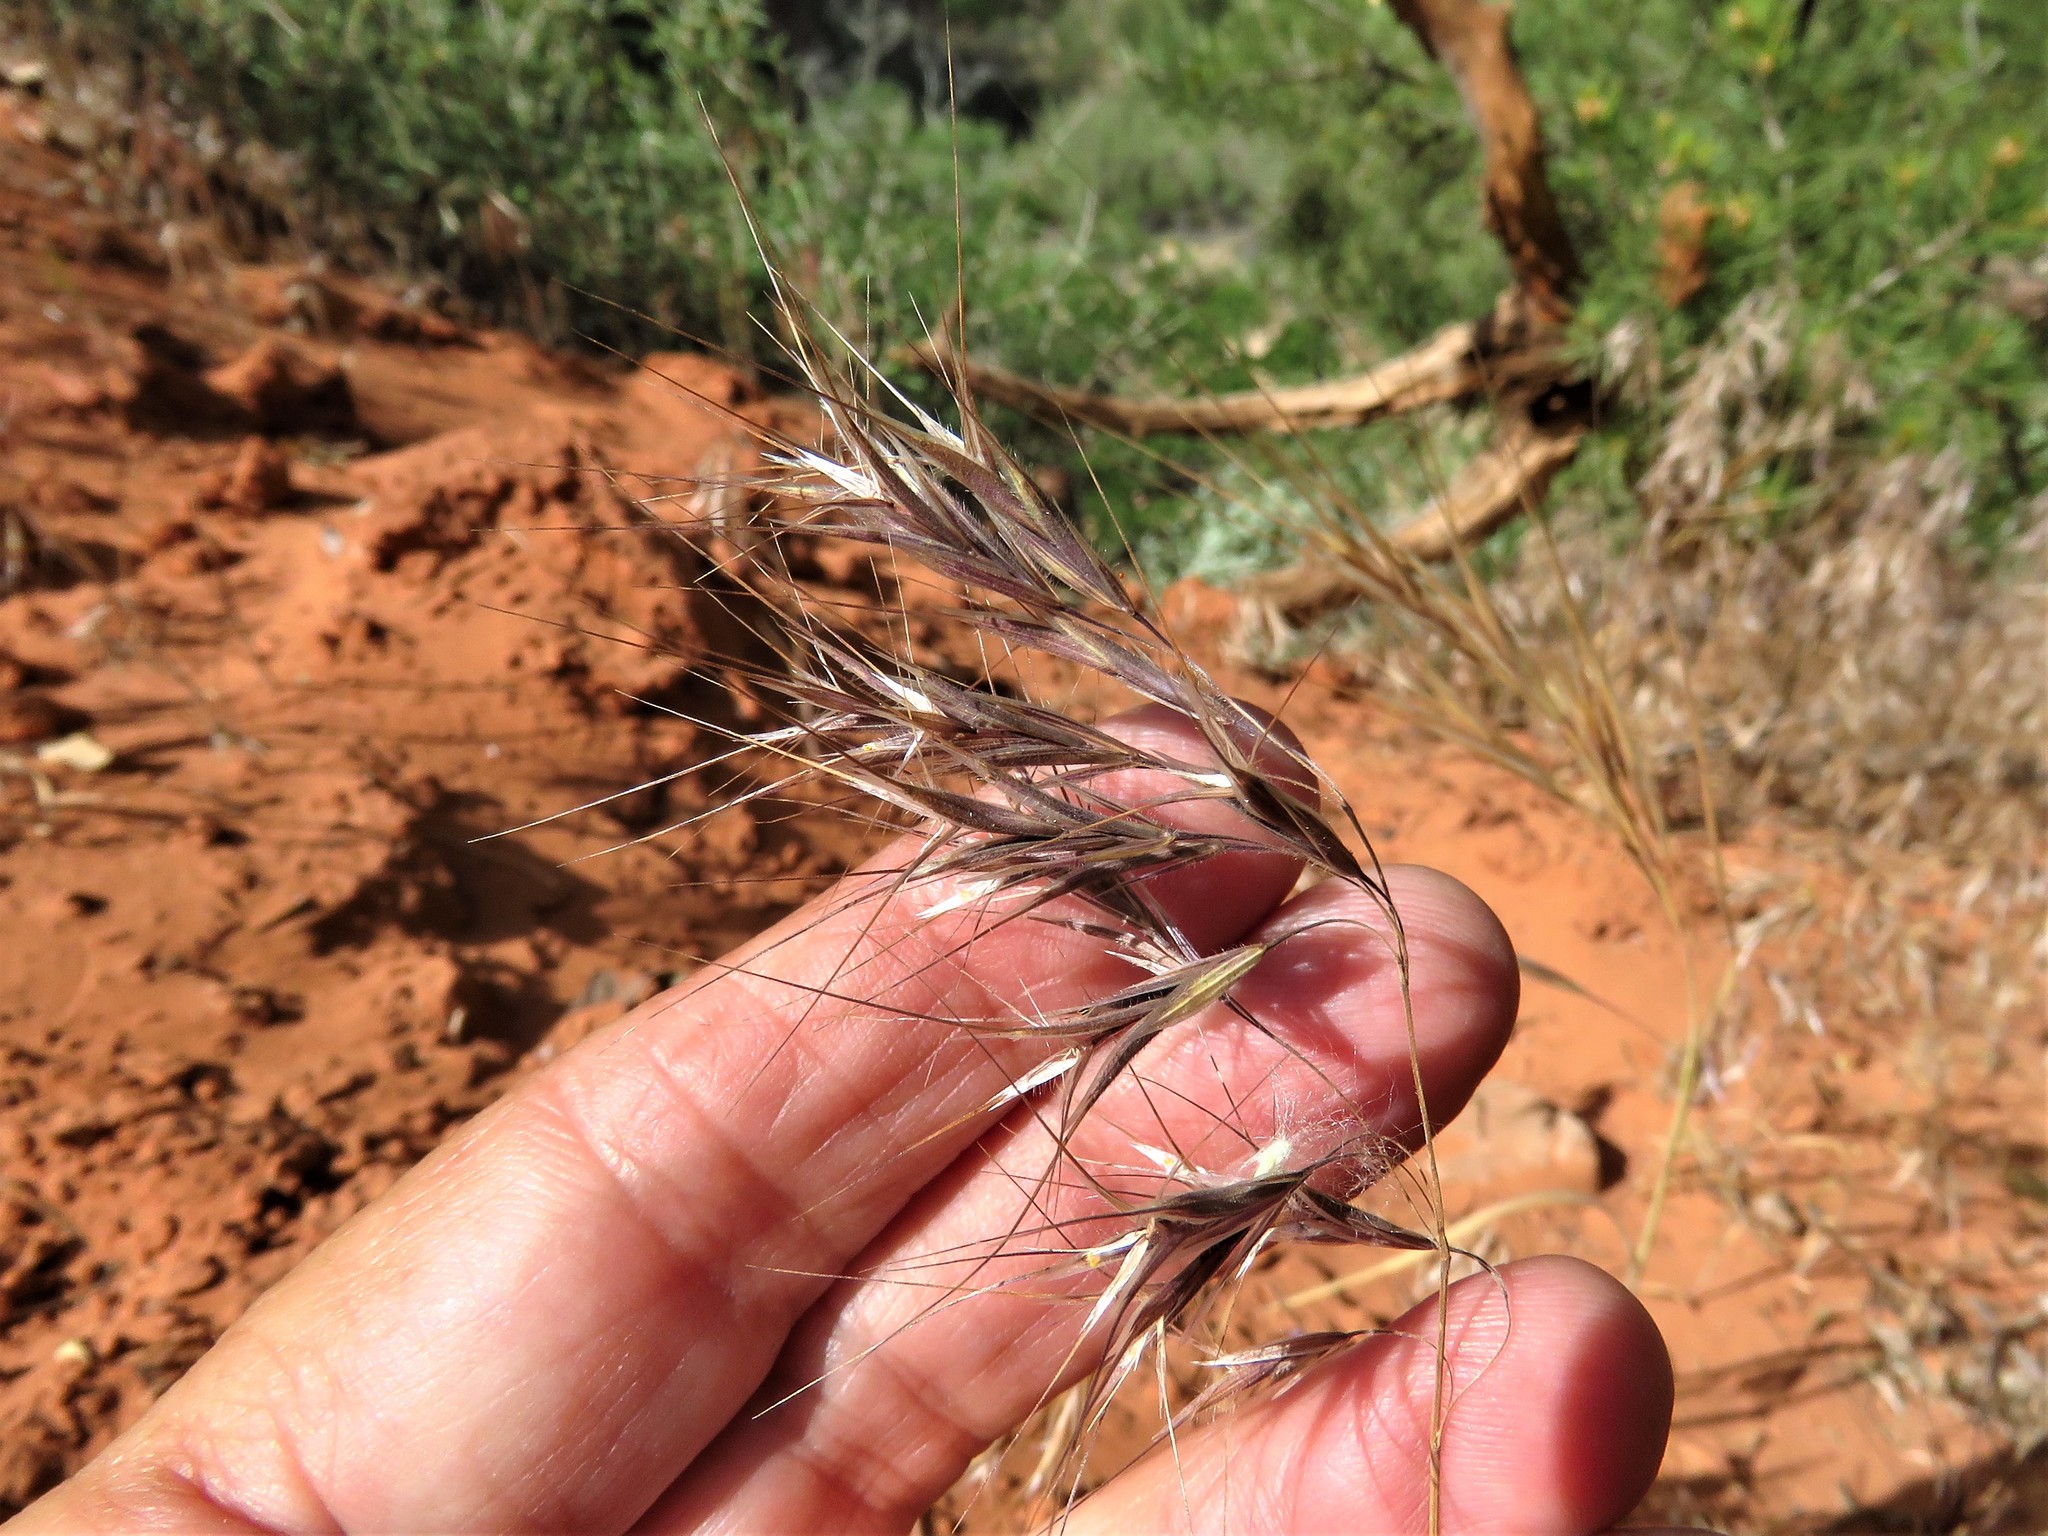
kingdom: Plantae
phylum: Tracheophyta
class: Liliopsida
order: Poales
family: Poaceae
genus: Bromus
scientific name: Bromus tectorum
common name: Cheatgrass
